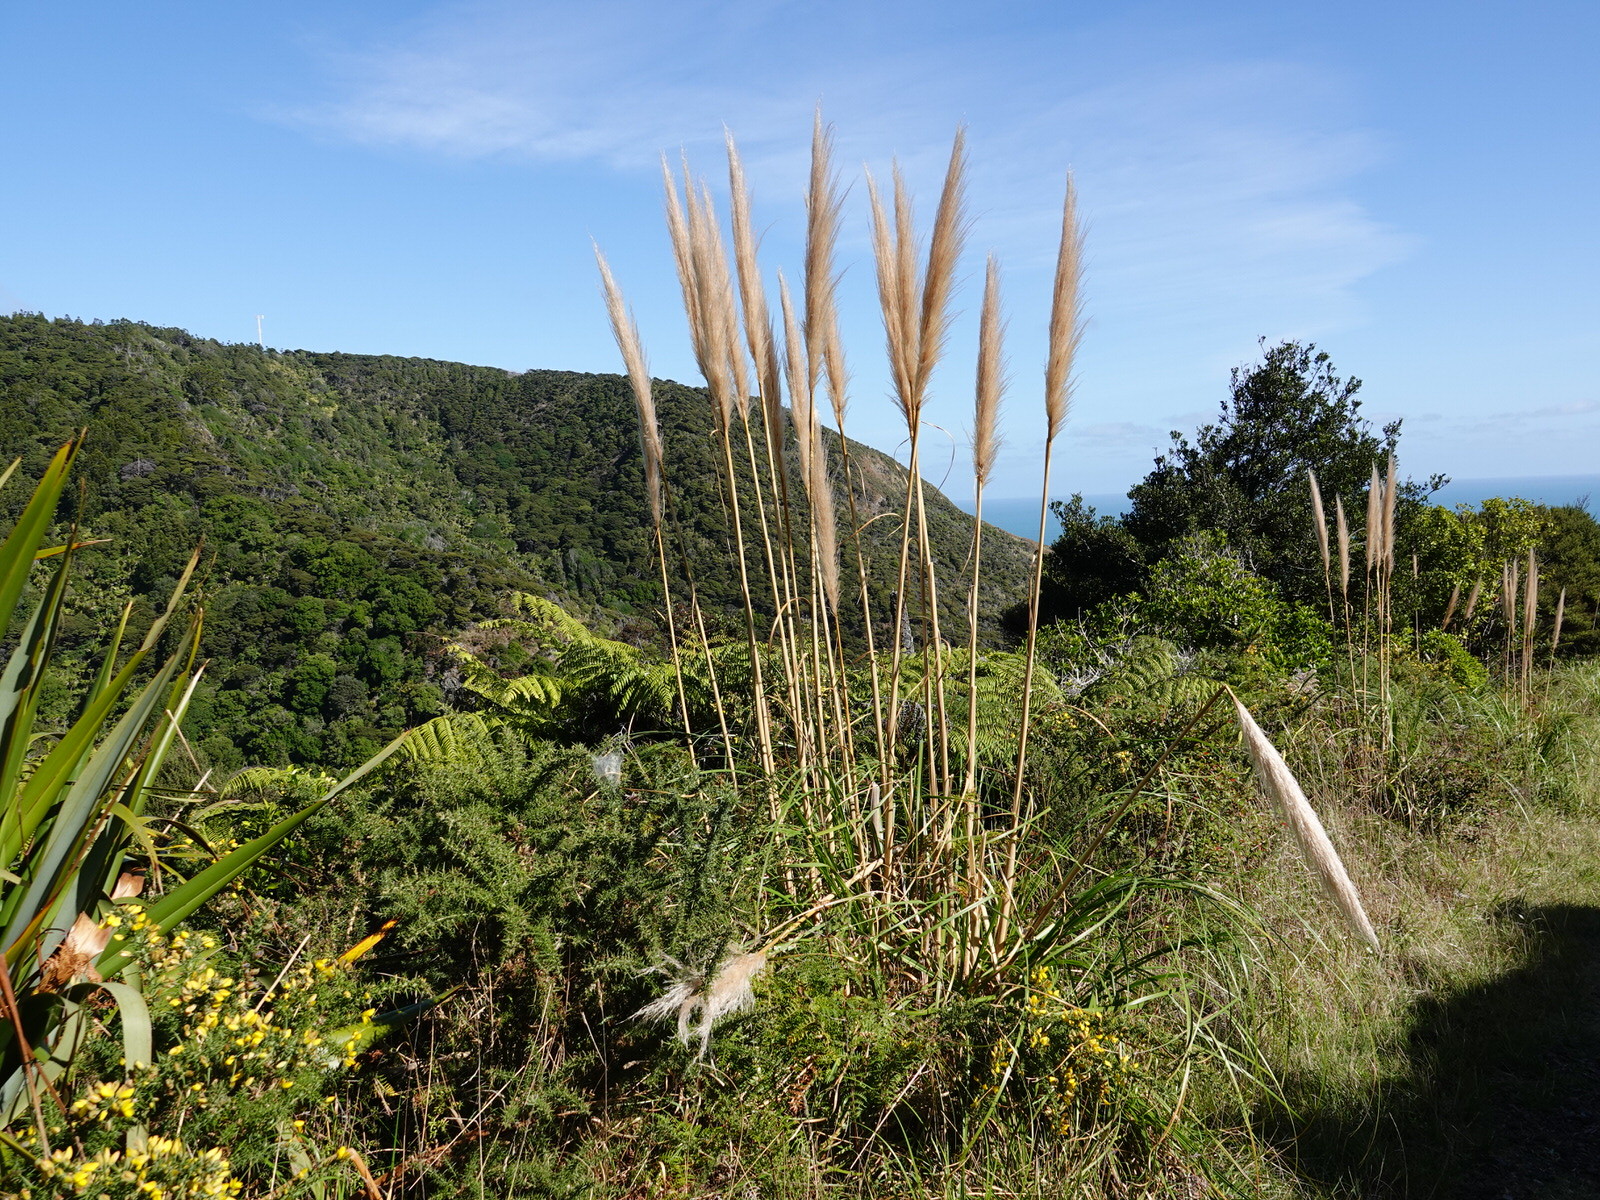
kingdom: Plantae
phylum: Tracheophyta
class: Liliopsida
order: Poales
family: Poaceae
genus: Cortaderia
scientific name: Cortaderia selloana
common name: Uruguayan pampas grass
